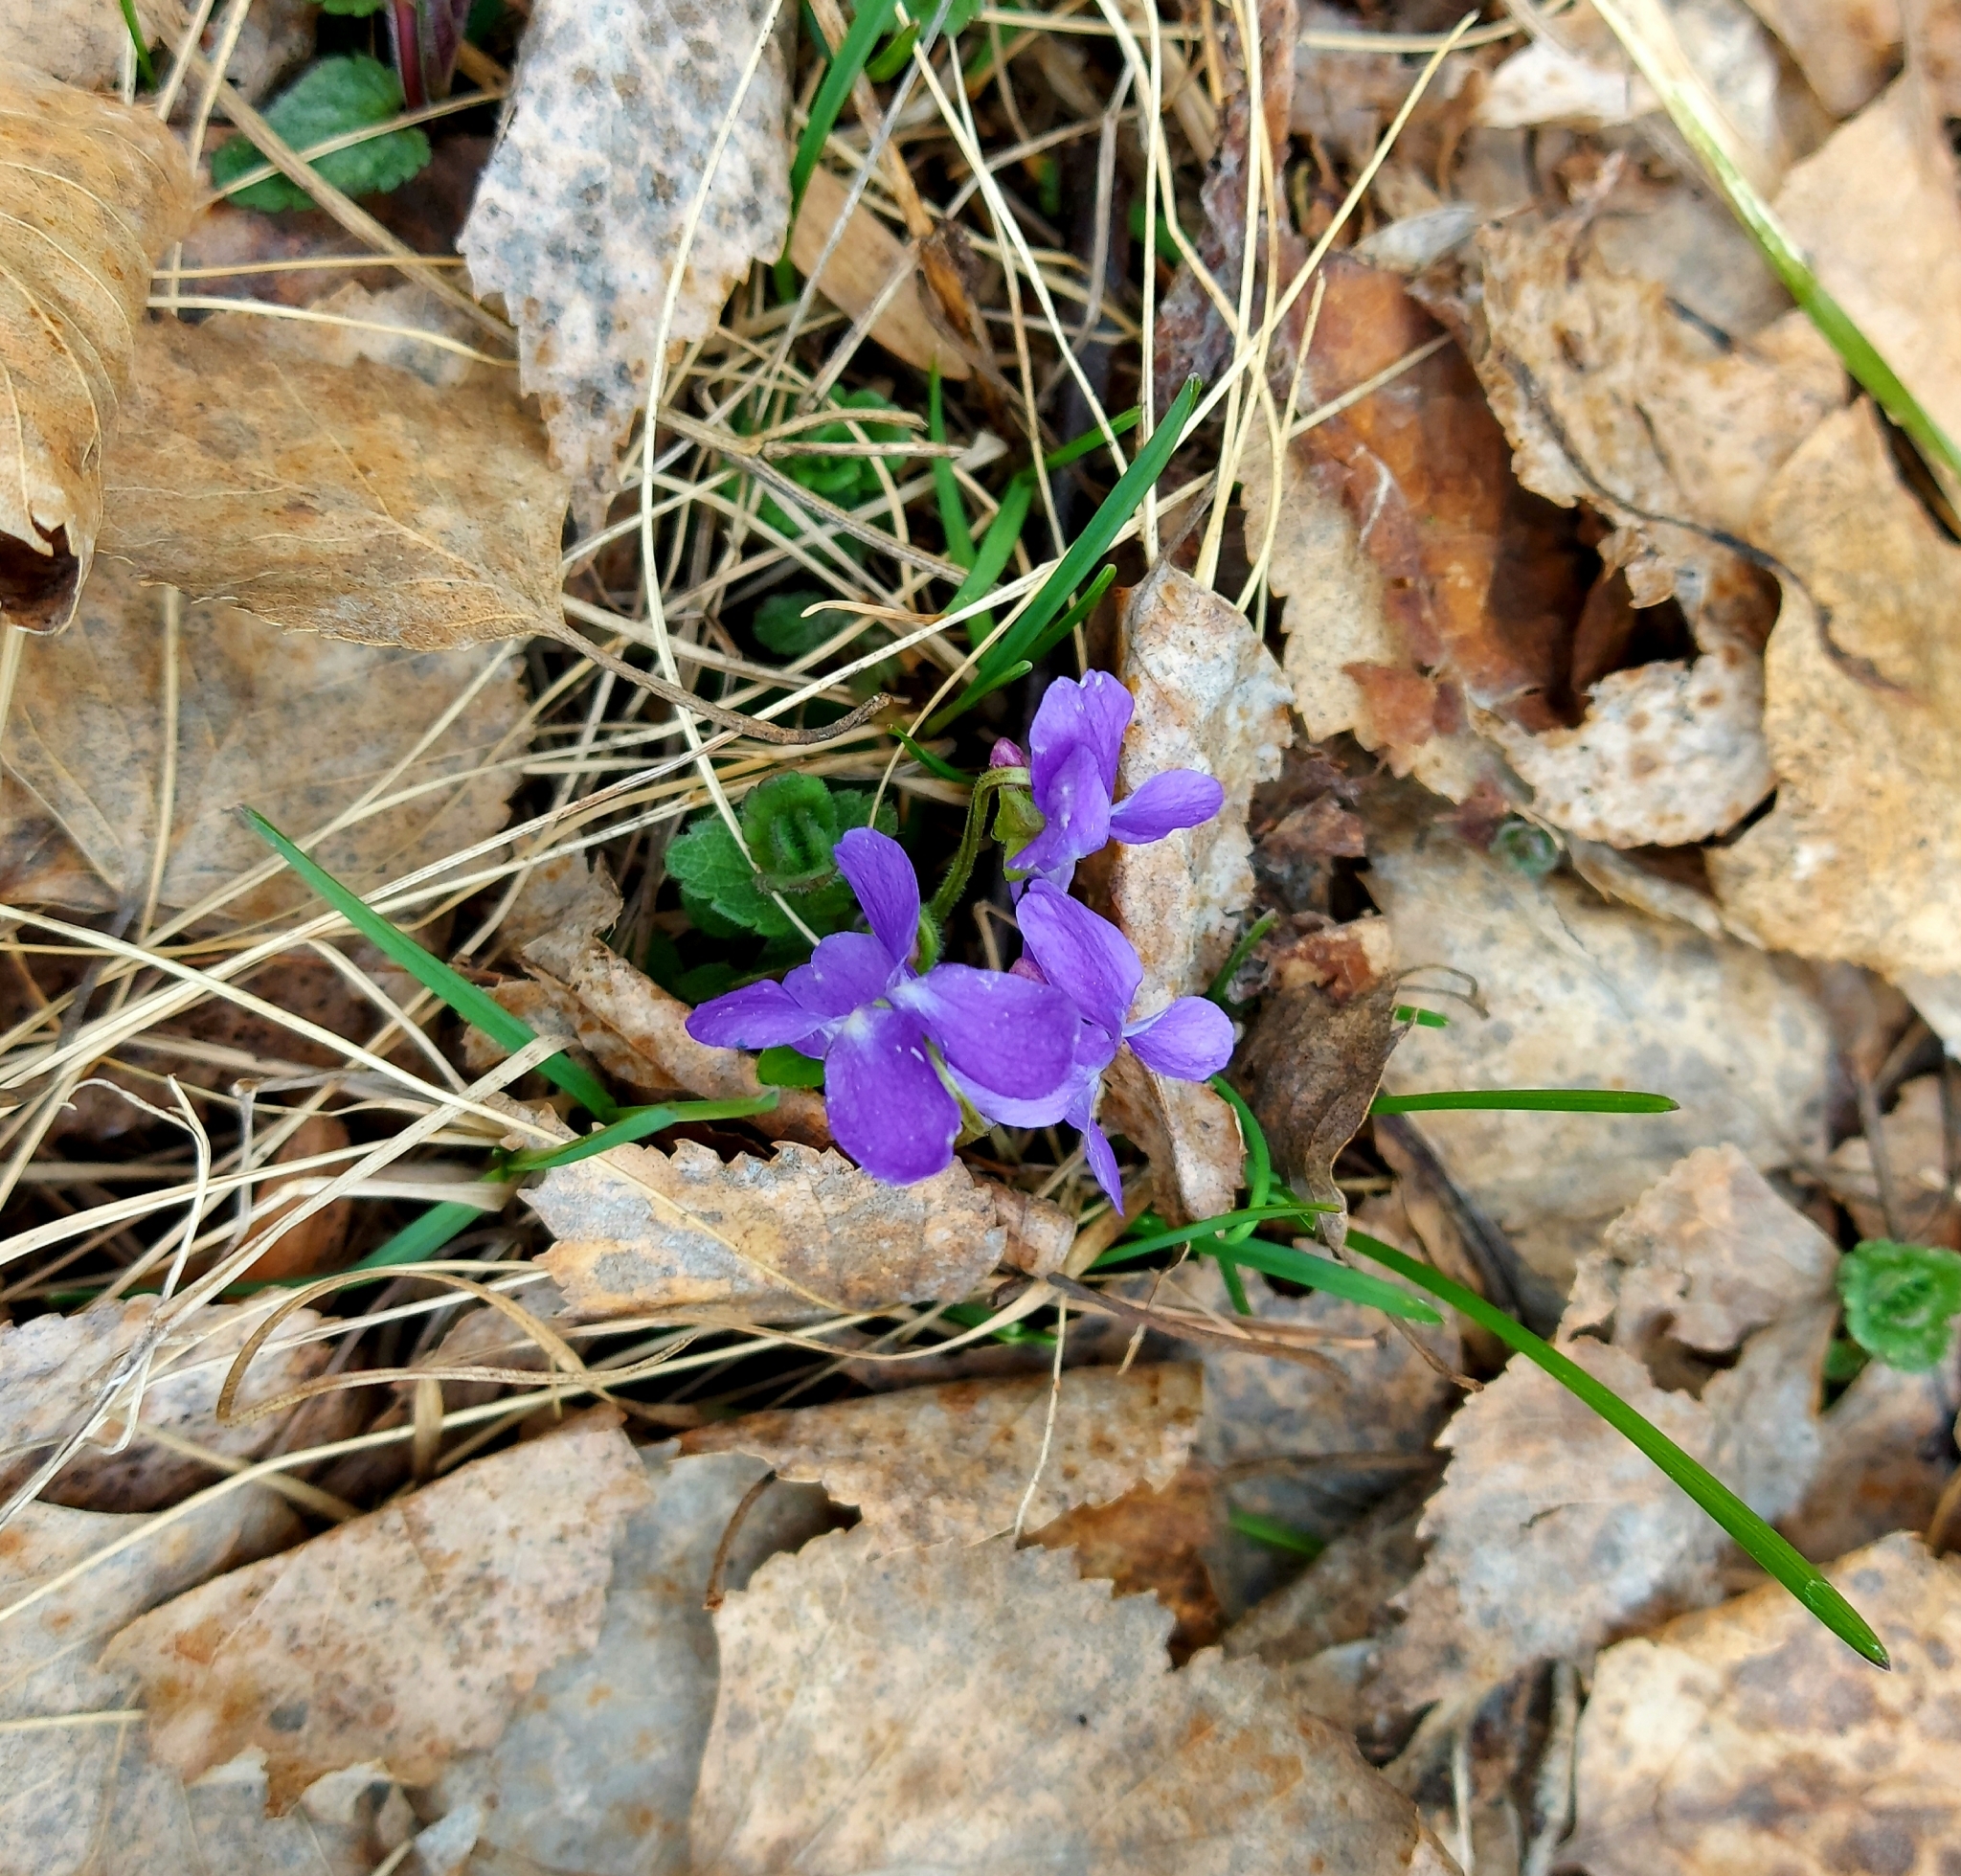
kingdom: Plantae
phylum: Tracheophyta
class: Magnoliopsida
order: Malpighiales
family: Violaceae
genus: Viola
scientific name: Viola hirta
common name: Hairy violet
